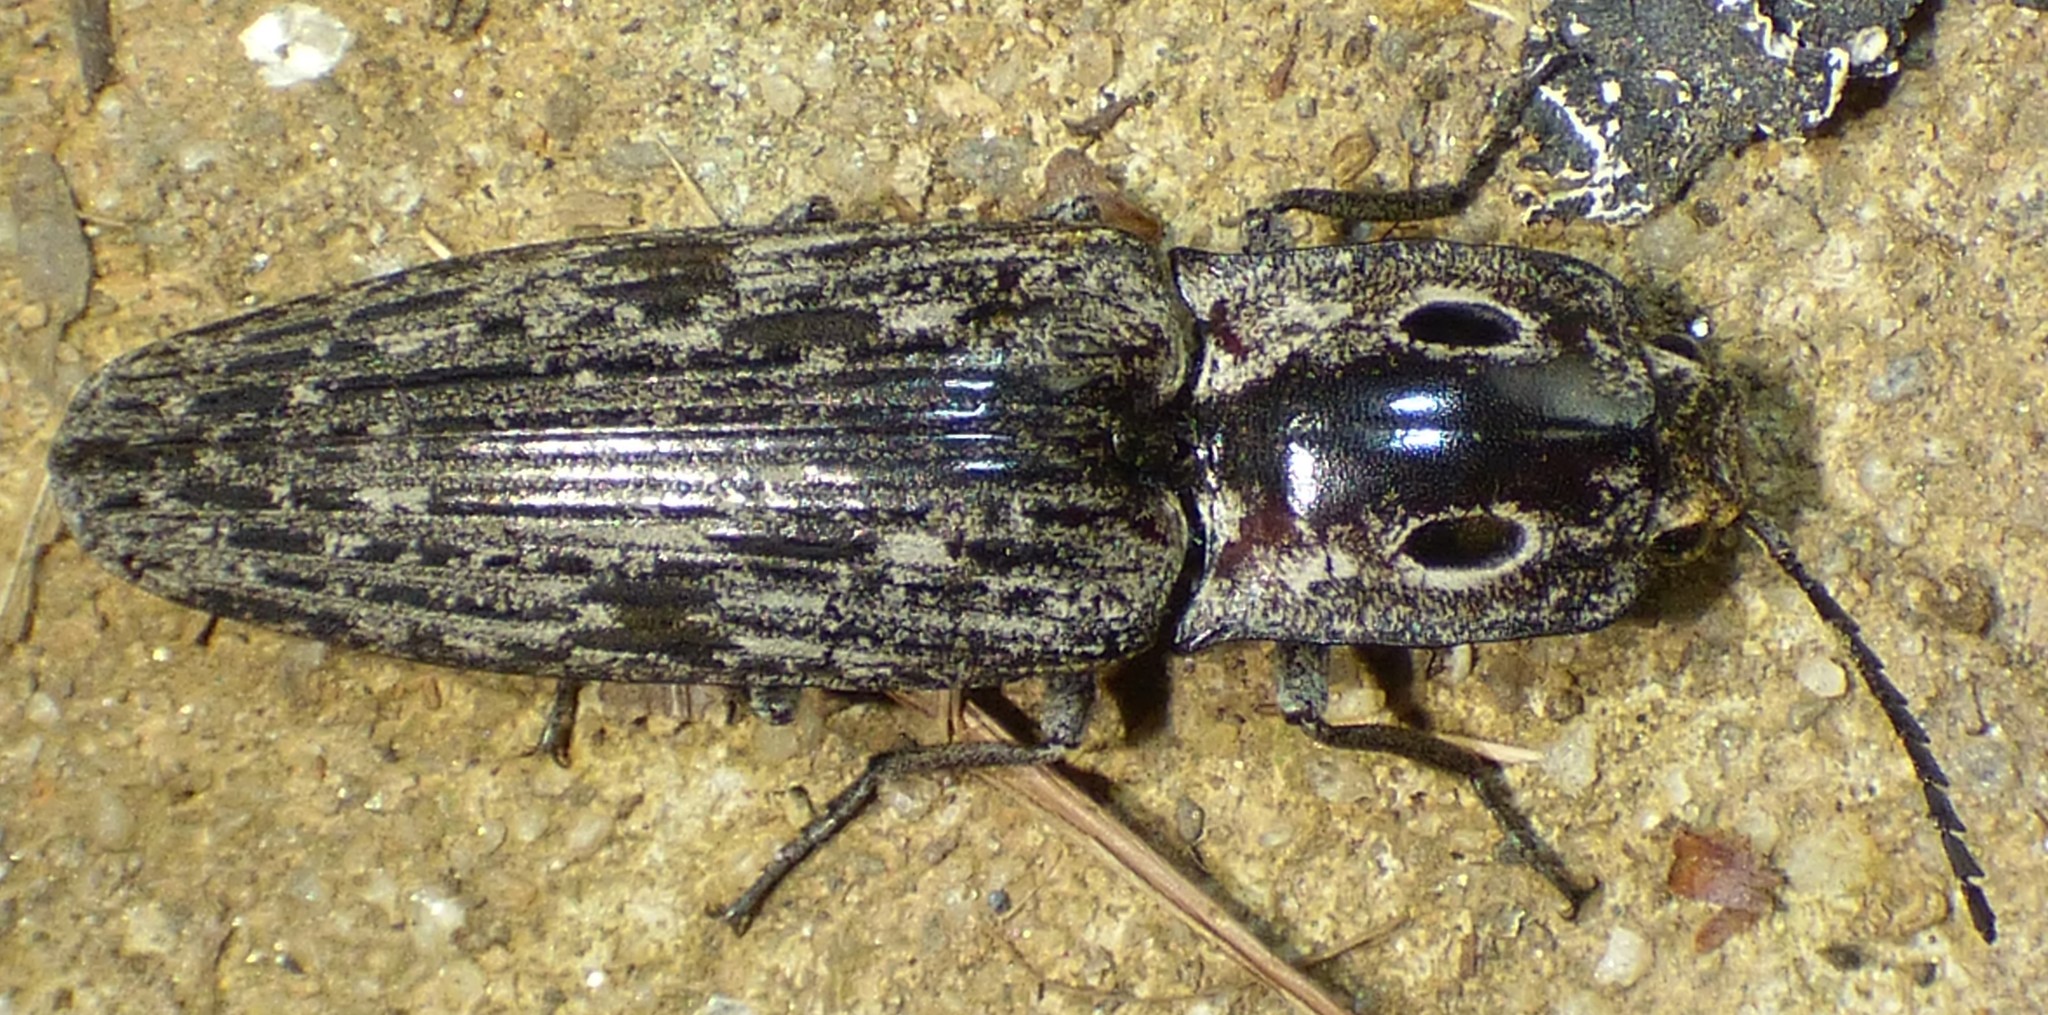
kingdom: Animalia
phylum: Arthropoda
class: Insecta
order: Coleoptera
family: Elateridae
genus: Alaus
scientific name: Alaus myops
